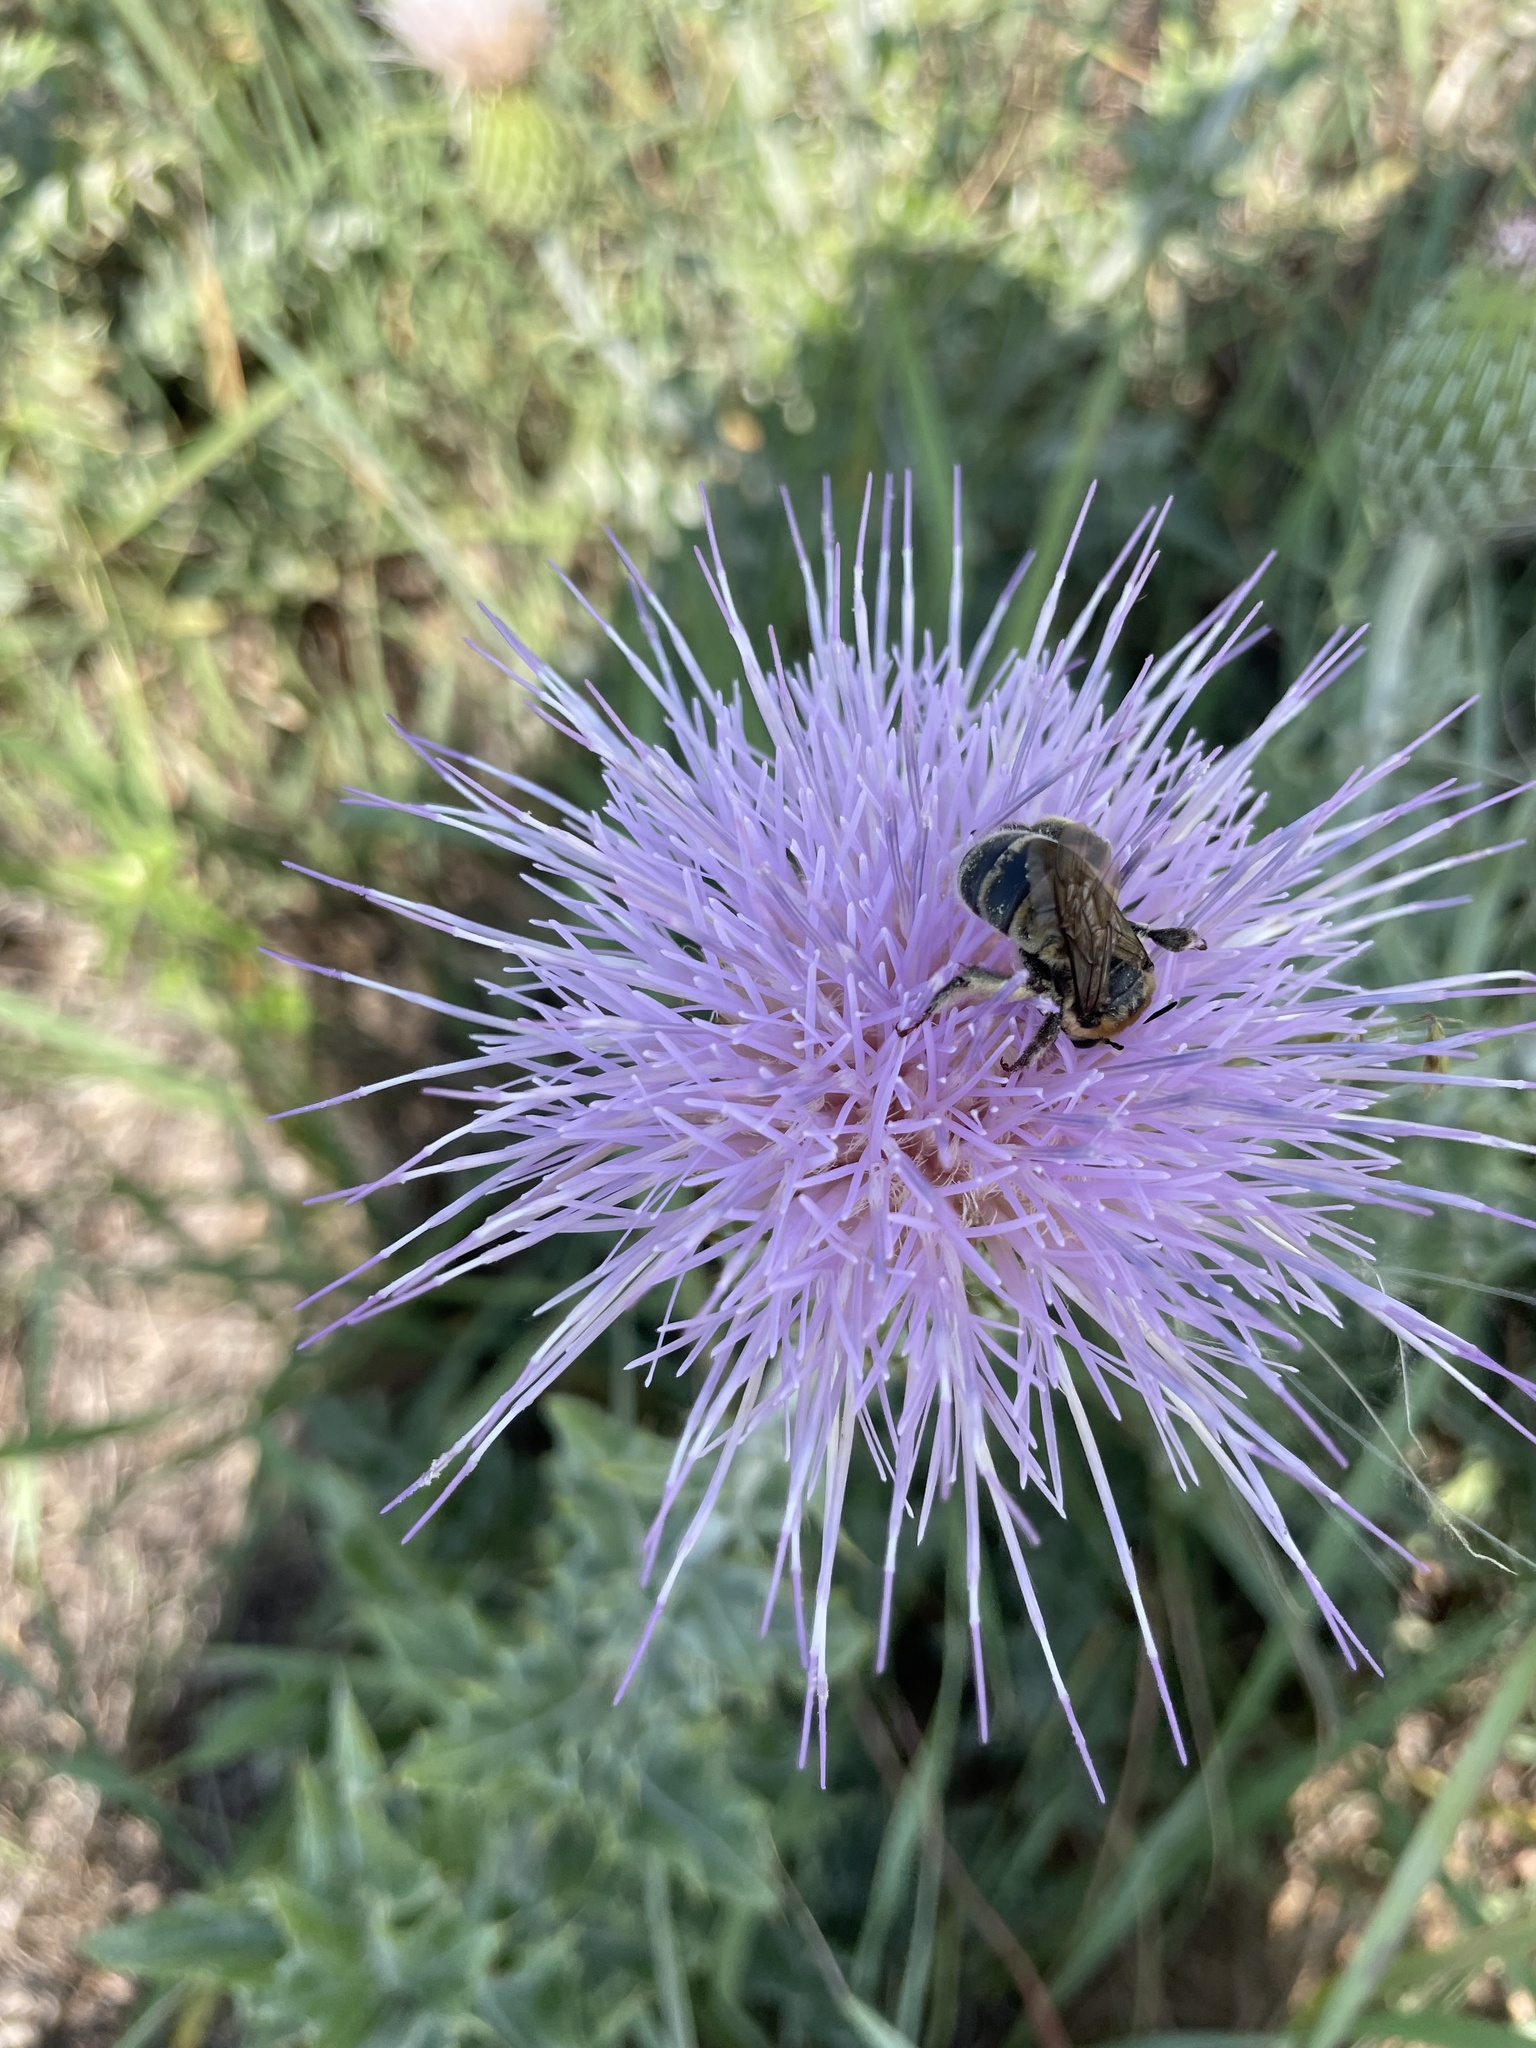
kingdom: Animalia
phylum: Arthropoda
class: Insecta
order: Hymenoptera
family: Apidae
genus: Anthophora
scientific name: Anthophora occidentalis
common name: Digger bee
